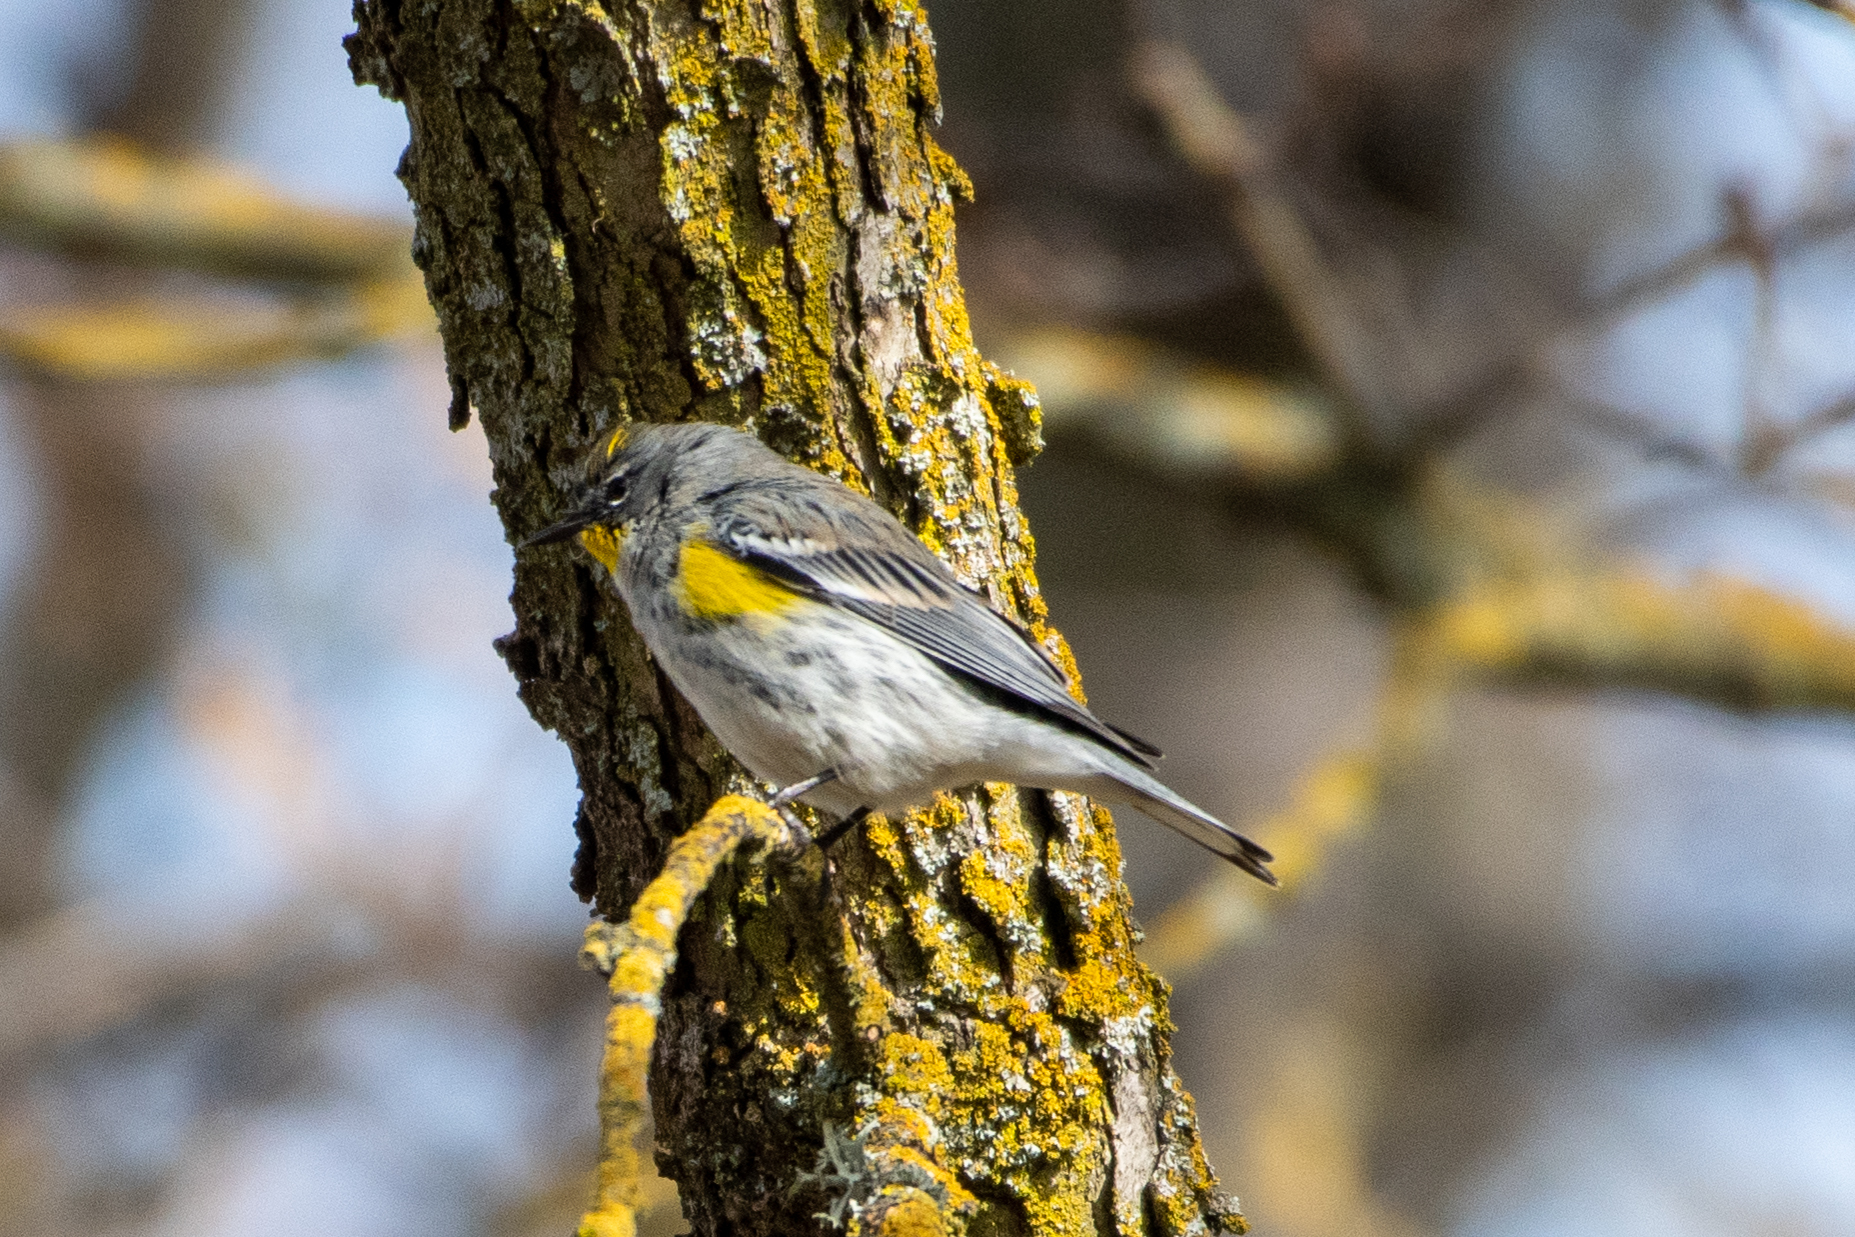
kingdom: Animalia
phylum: Chordata
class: Aves
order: Passeriformes
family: Parulidae
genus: Setophaga
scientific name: Setophaga coronata
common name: Myrtle warbler
